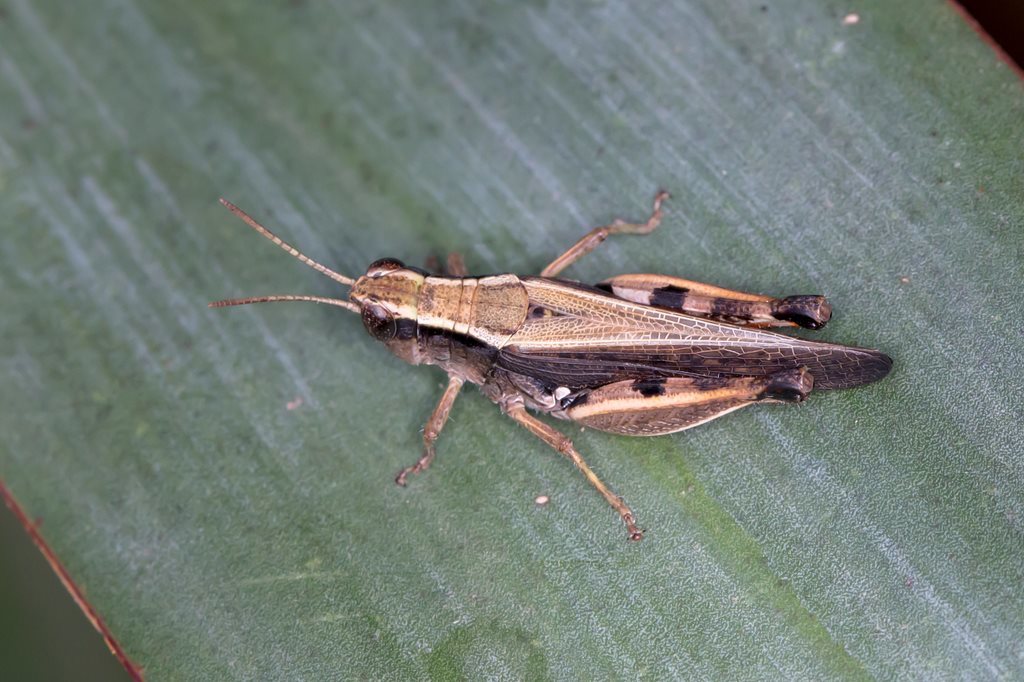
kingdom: Animalia
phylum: Arthropoda
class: Insecta
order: Orthoptera
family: Acrididae
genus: Phaulacridium
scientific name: Phaulacridium vittatum
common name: Wingless grasshopper
